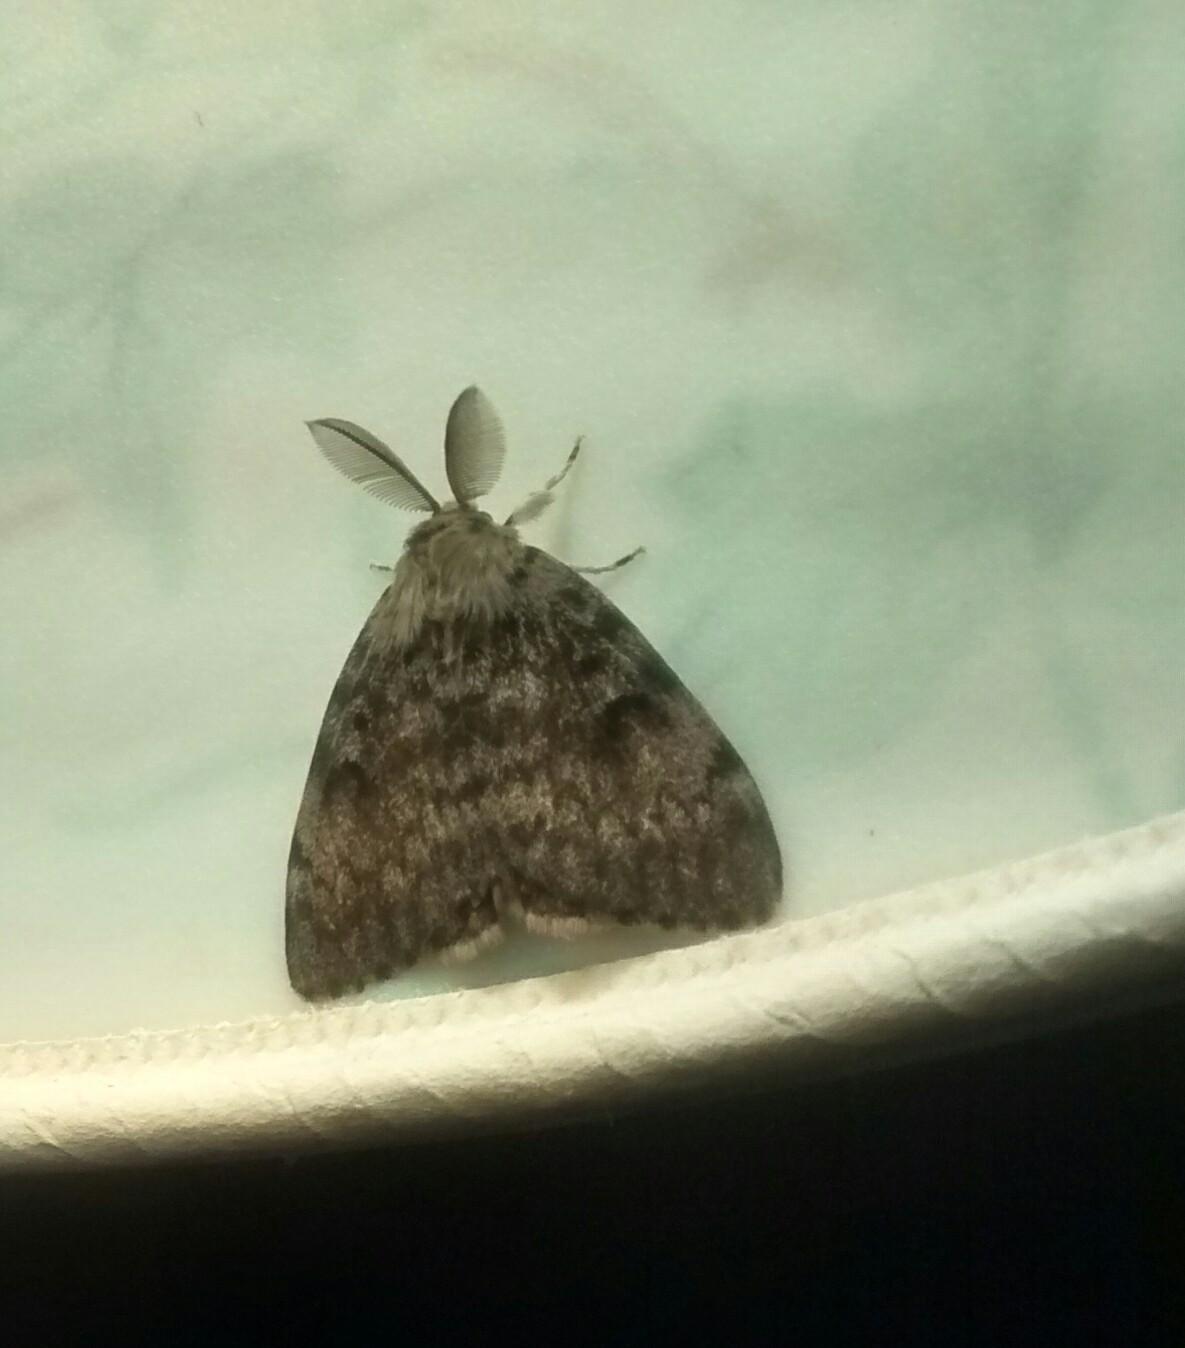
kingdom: Animalia
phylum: Arthropoda
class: Insecta
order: Lepidoptera
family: Erebidae
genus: Lymantria
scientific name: Lymantria dispar
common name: Gypsy moth
